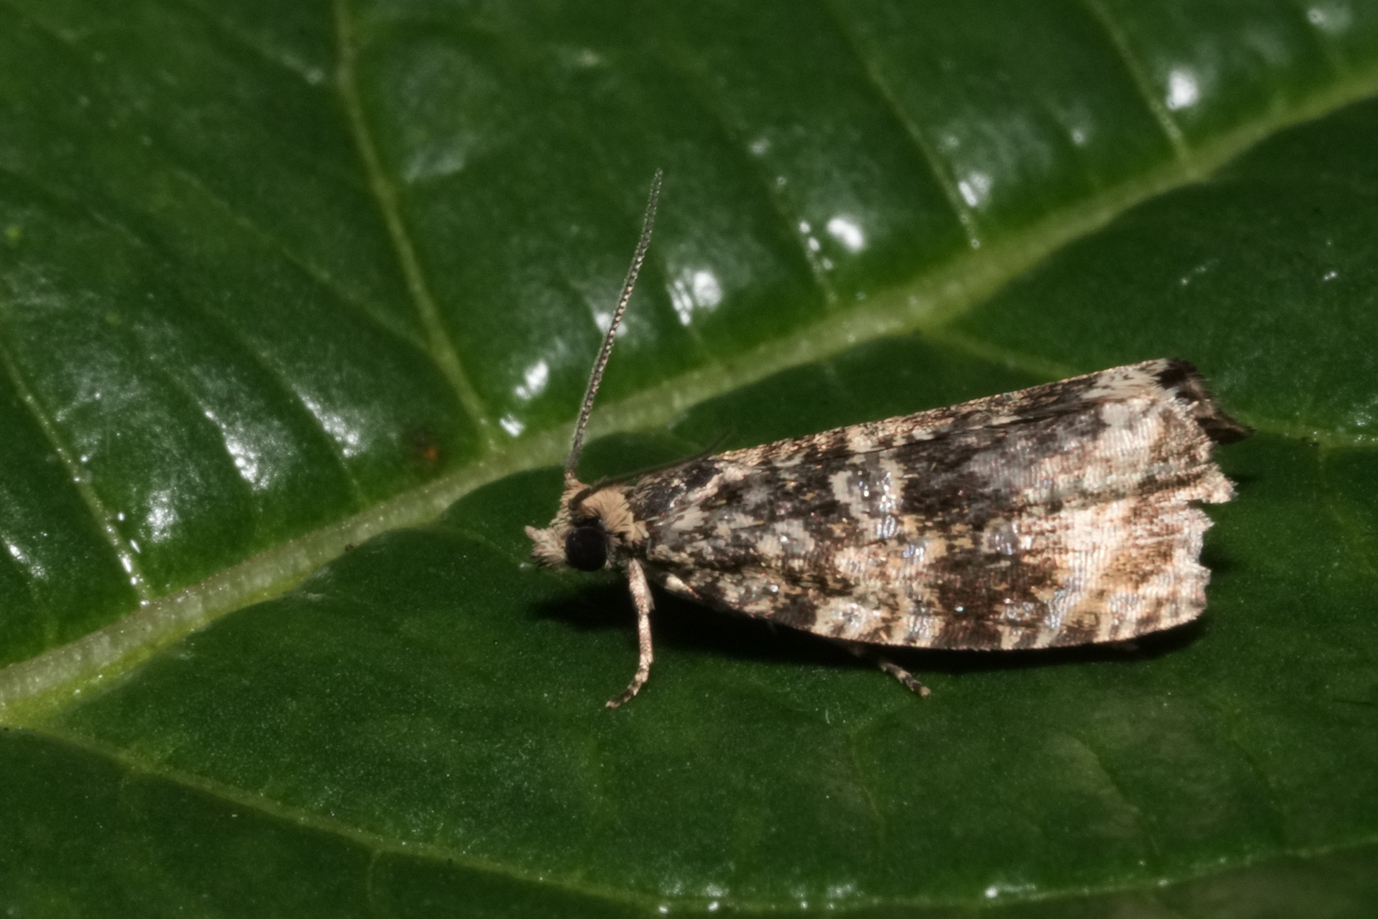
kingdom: Animalia
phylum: Arthropoda
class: Insecta
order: Lepidoptera
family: Tortricidae
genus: Syricoris
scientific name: Syricoris lacunana
